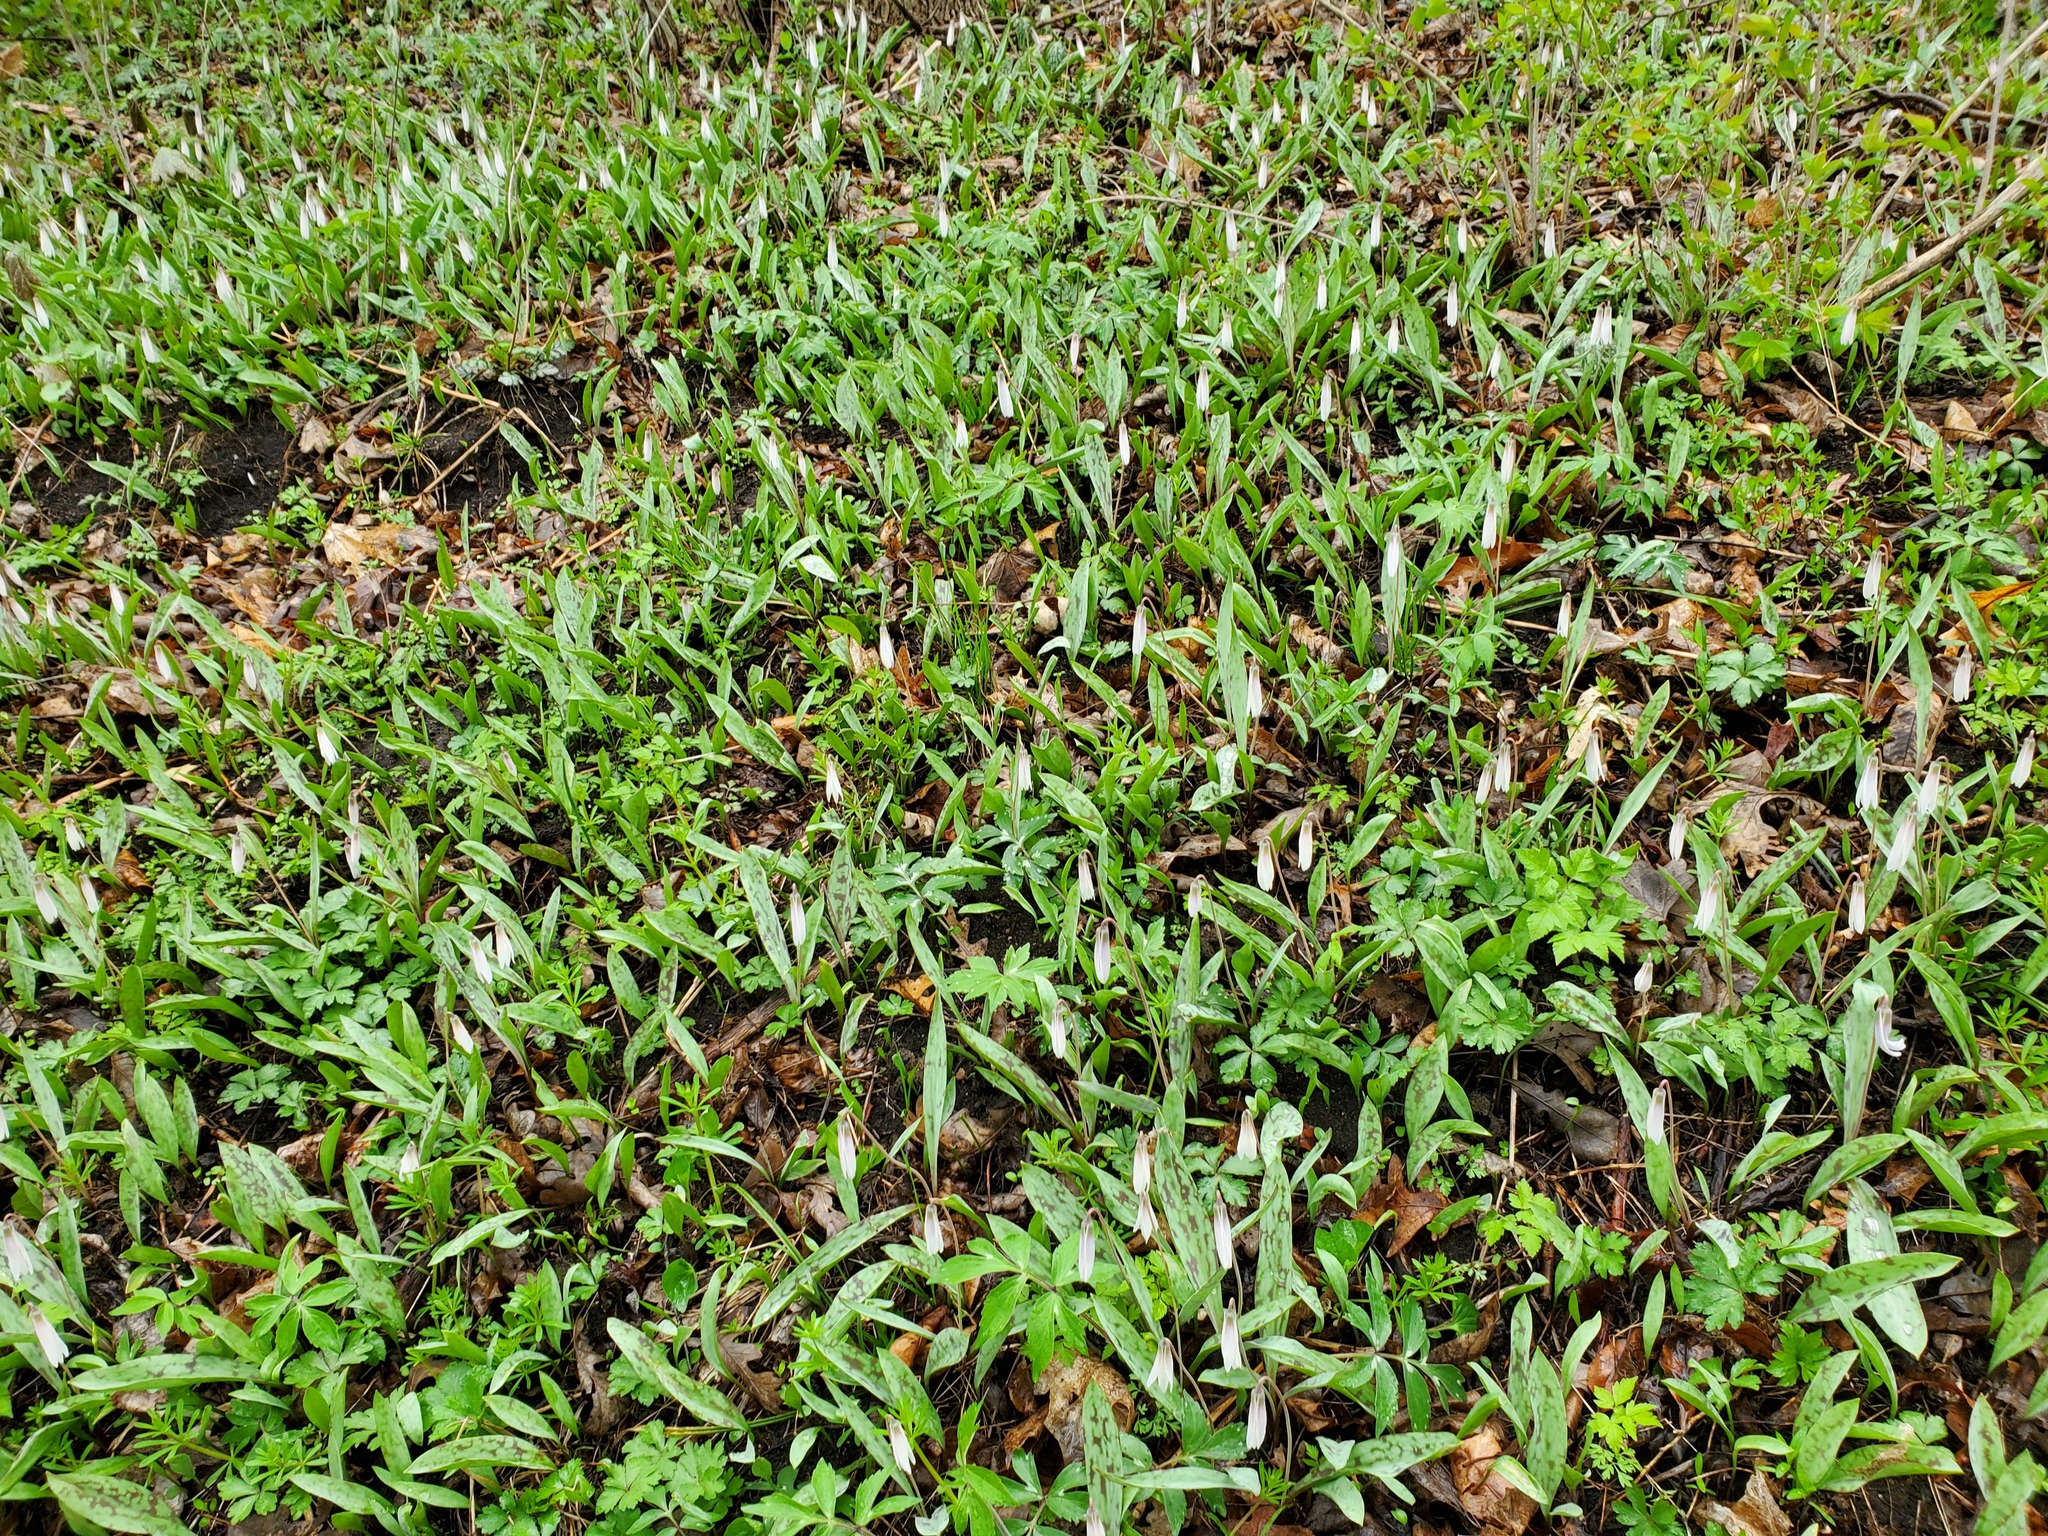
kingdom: Plantae
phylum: Tracheophyta
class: Liliopsida
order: Liliales
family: Liliaceae
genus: Erythronium
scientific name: Erythronium albidum
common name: White trout-lily
